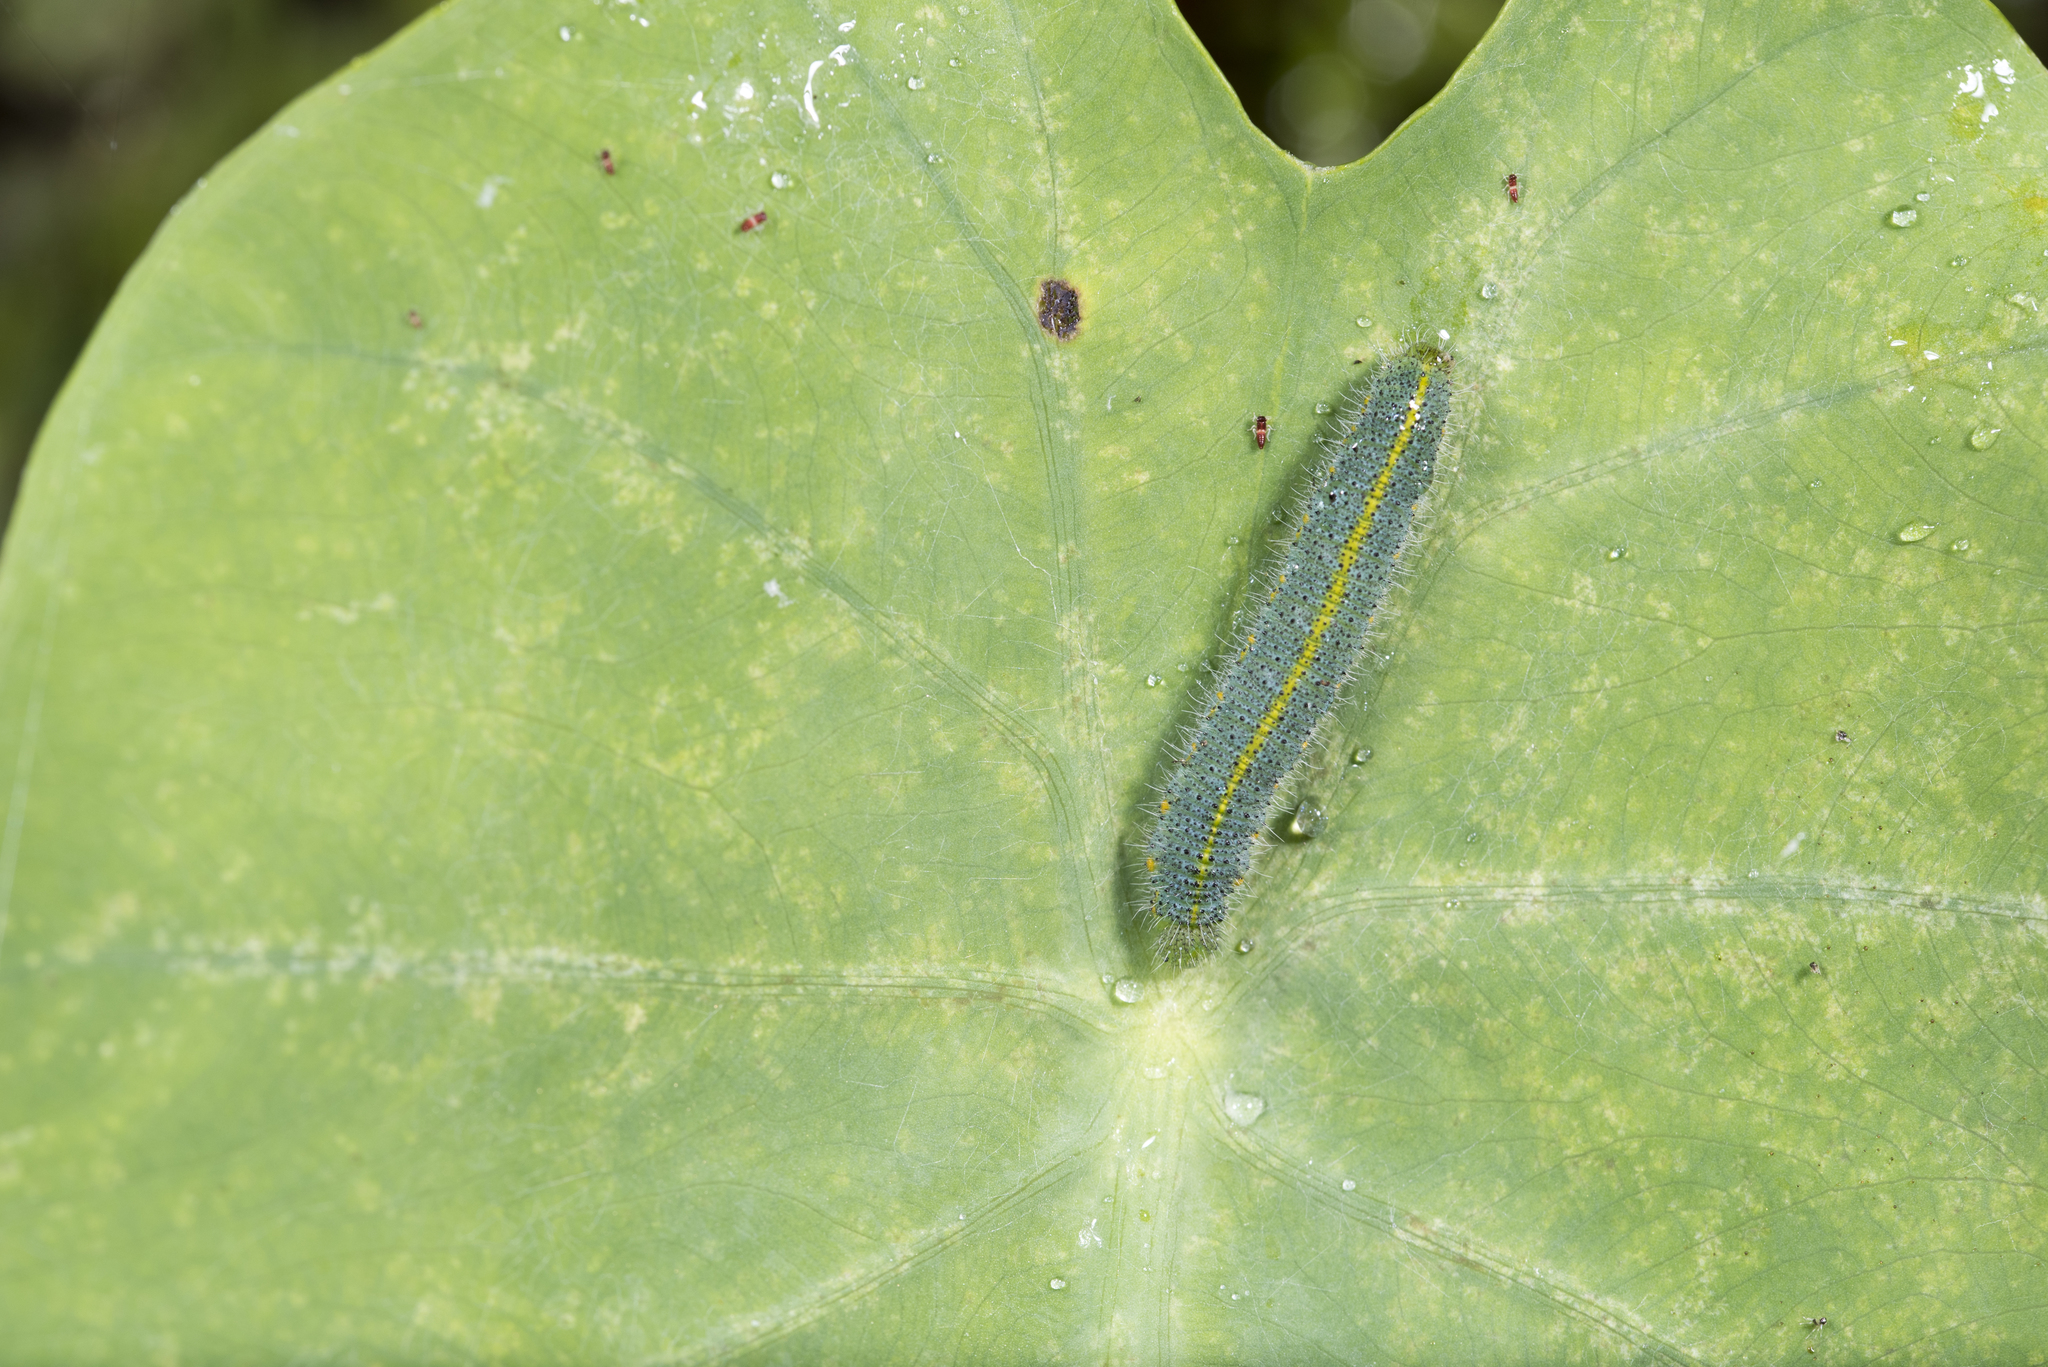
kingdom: Animalia
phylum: Arthropoda
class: Insecta
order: Lepidoptera
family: Pieridae
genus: Pieris
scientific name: Pieris canidia
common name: Indian cabbage white
